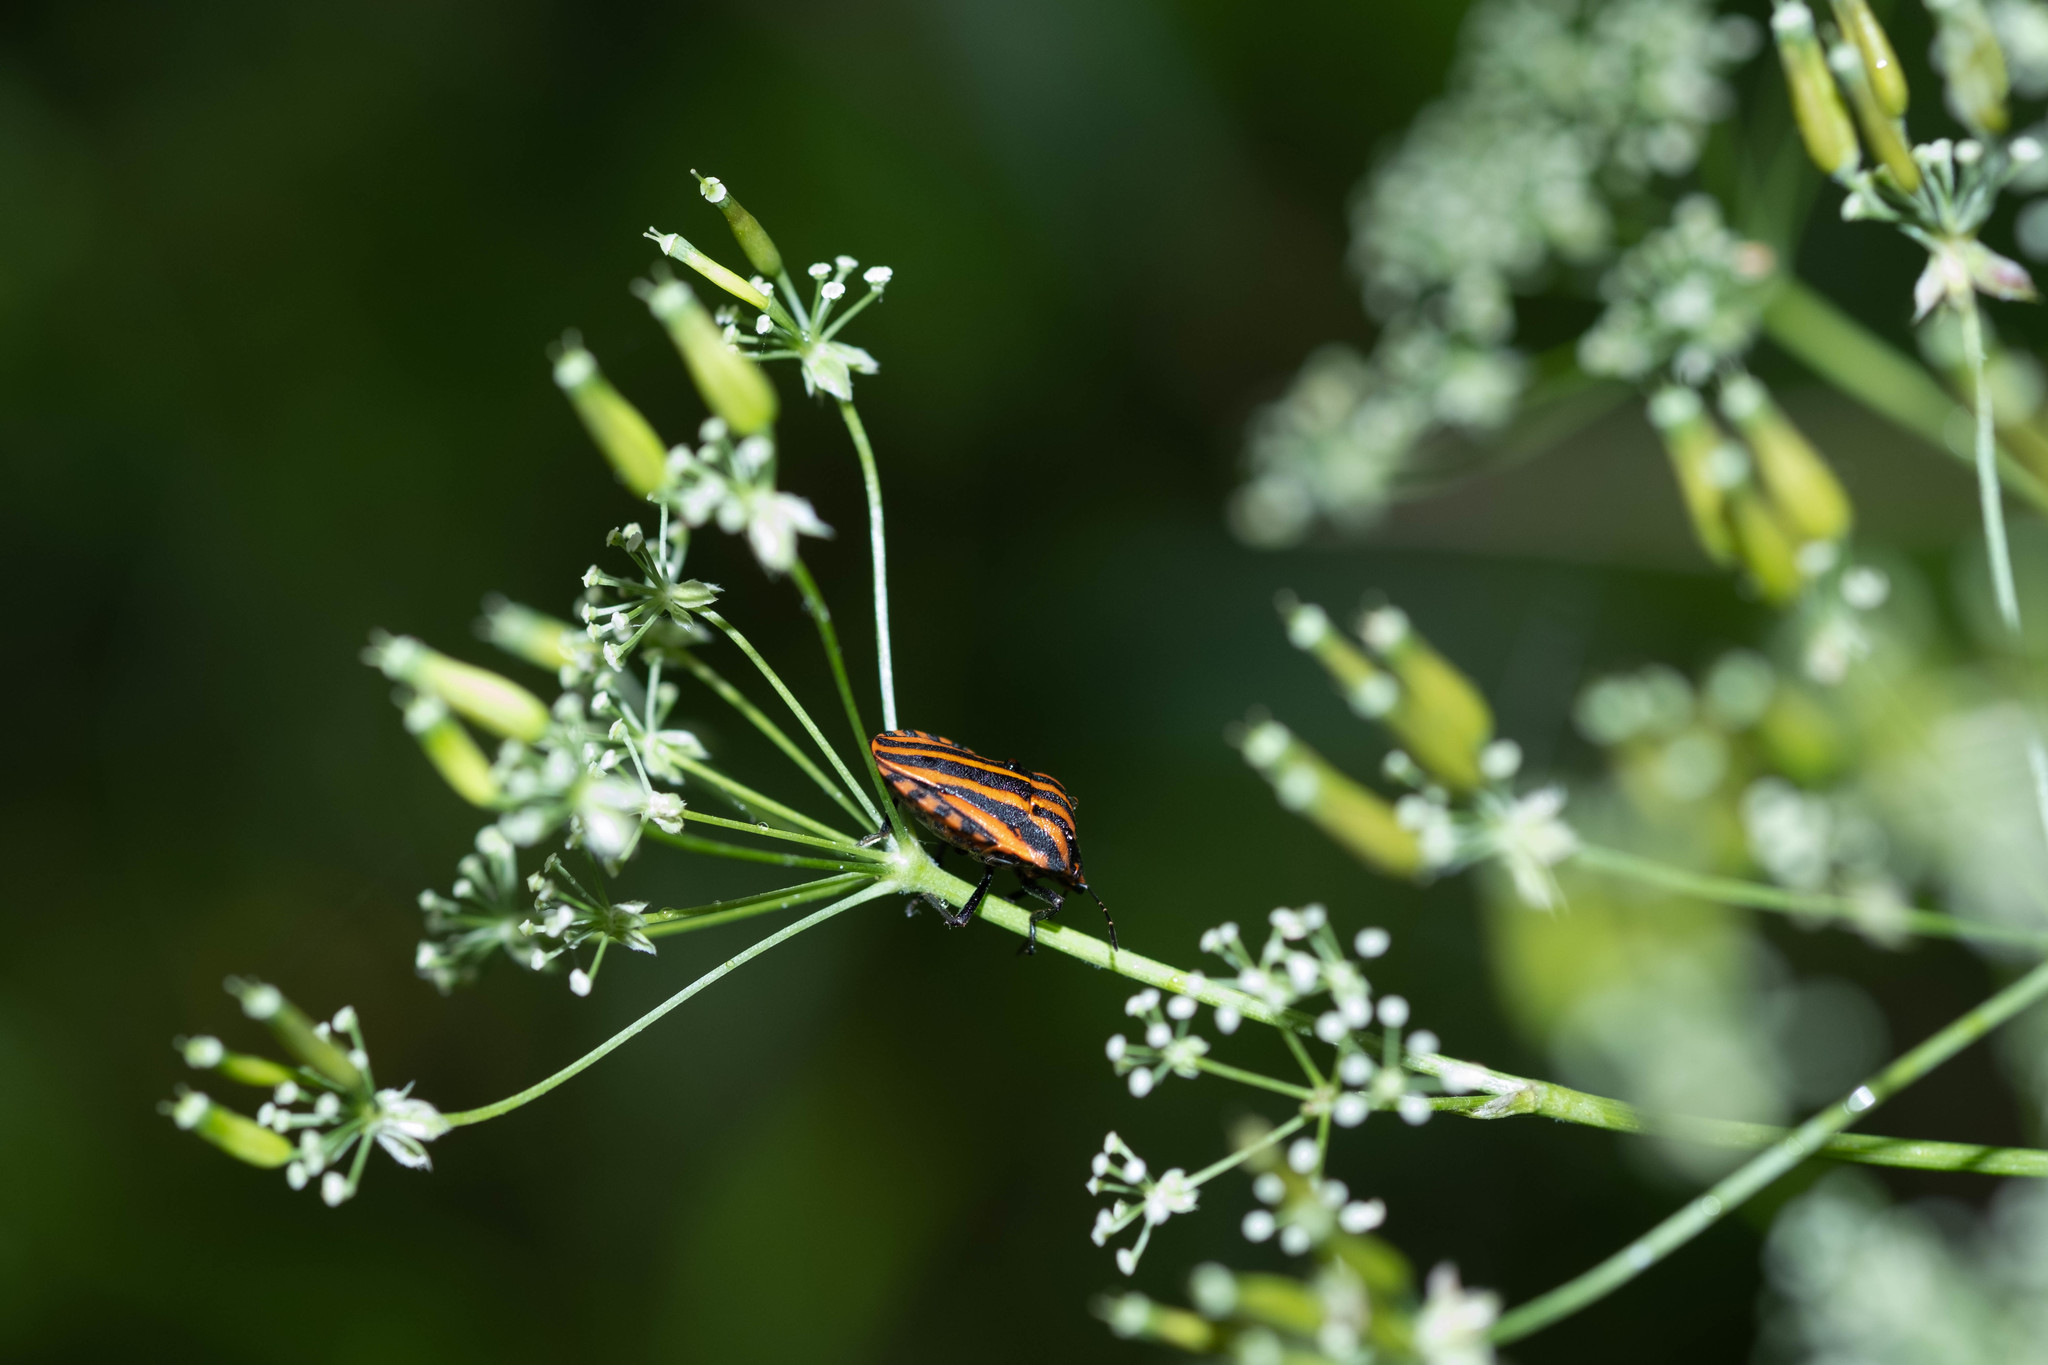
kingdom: Animalia
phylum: Arthropoda
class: Insecta
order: Hemiptera
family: Pentatomidae
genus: Graphosoma
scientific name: Graphosoma italicum
